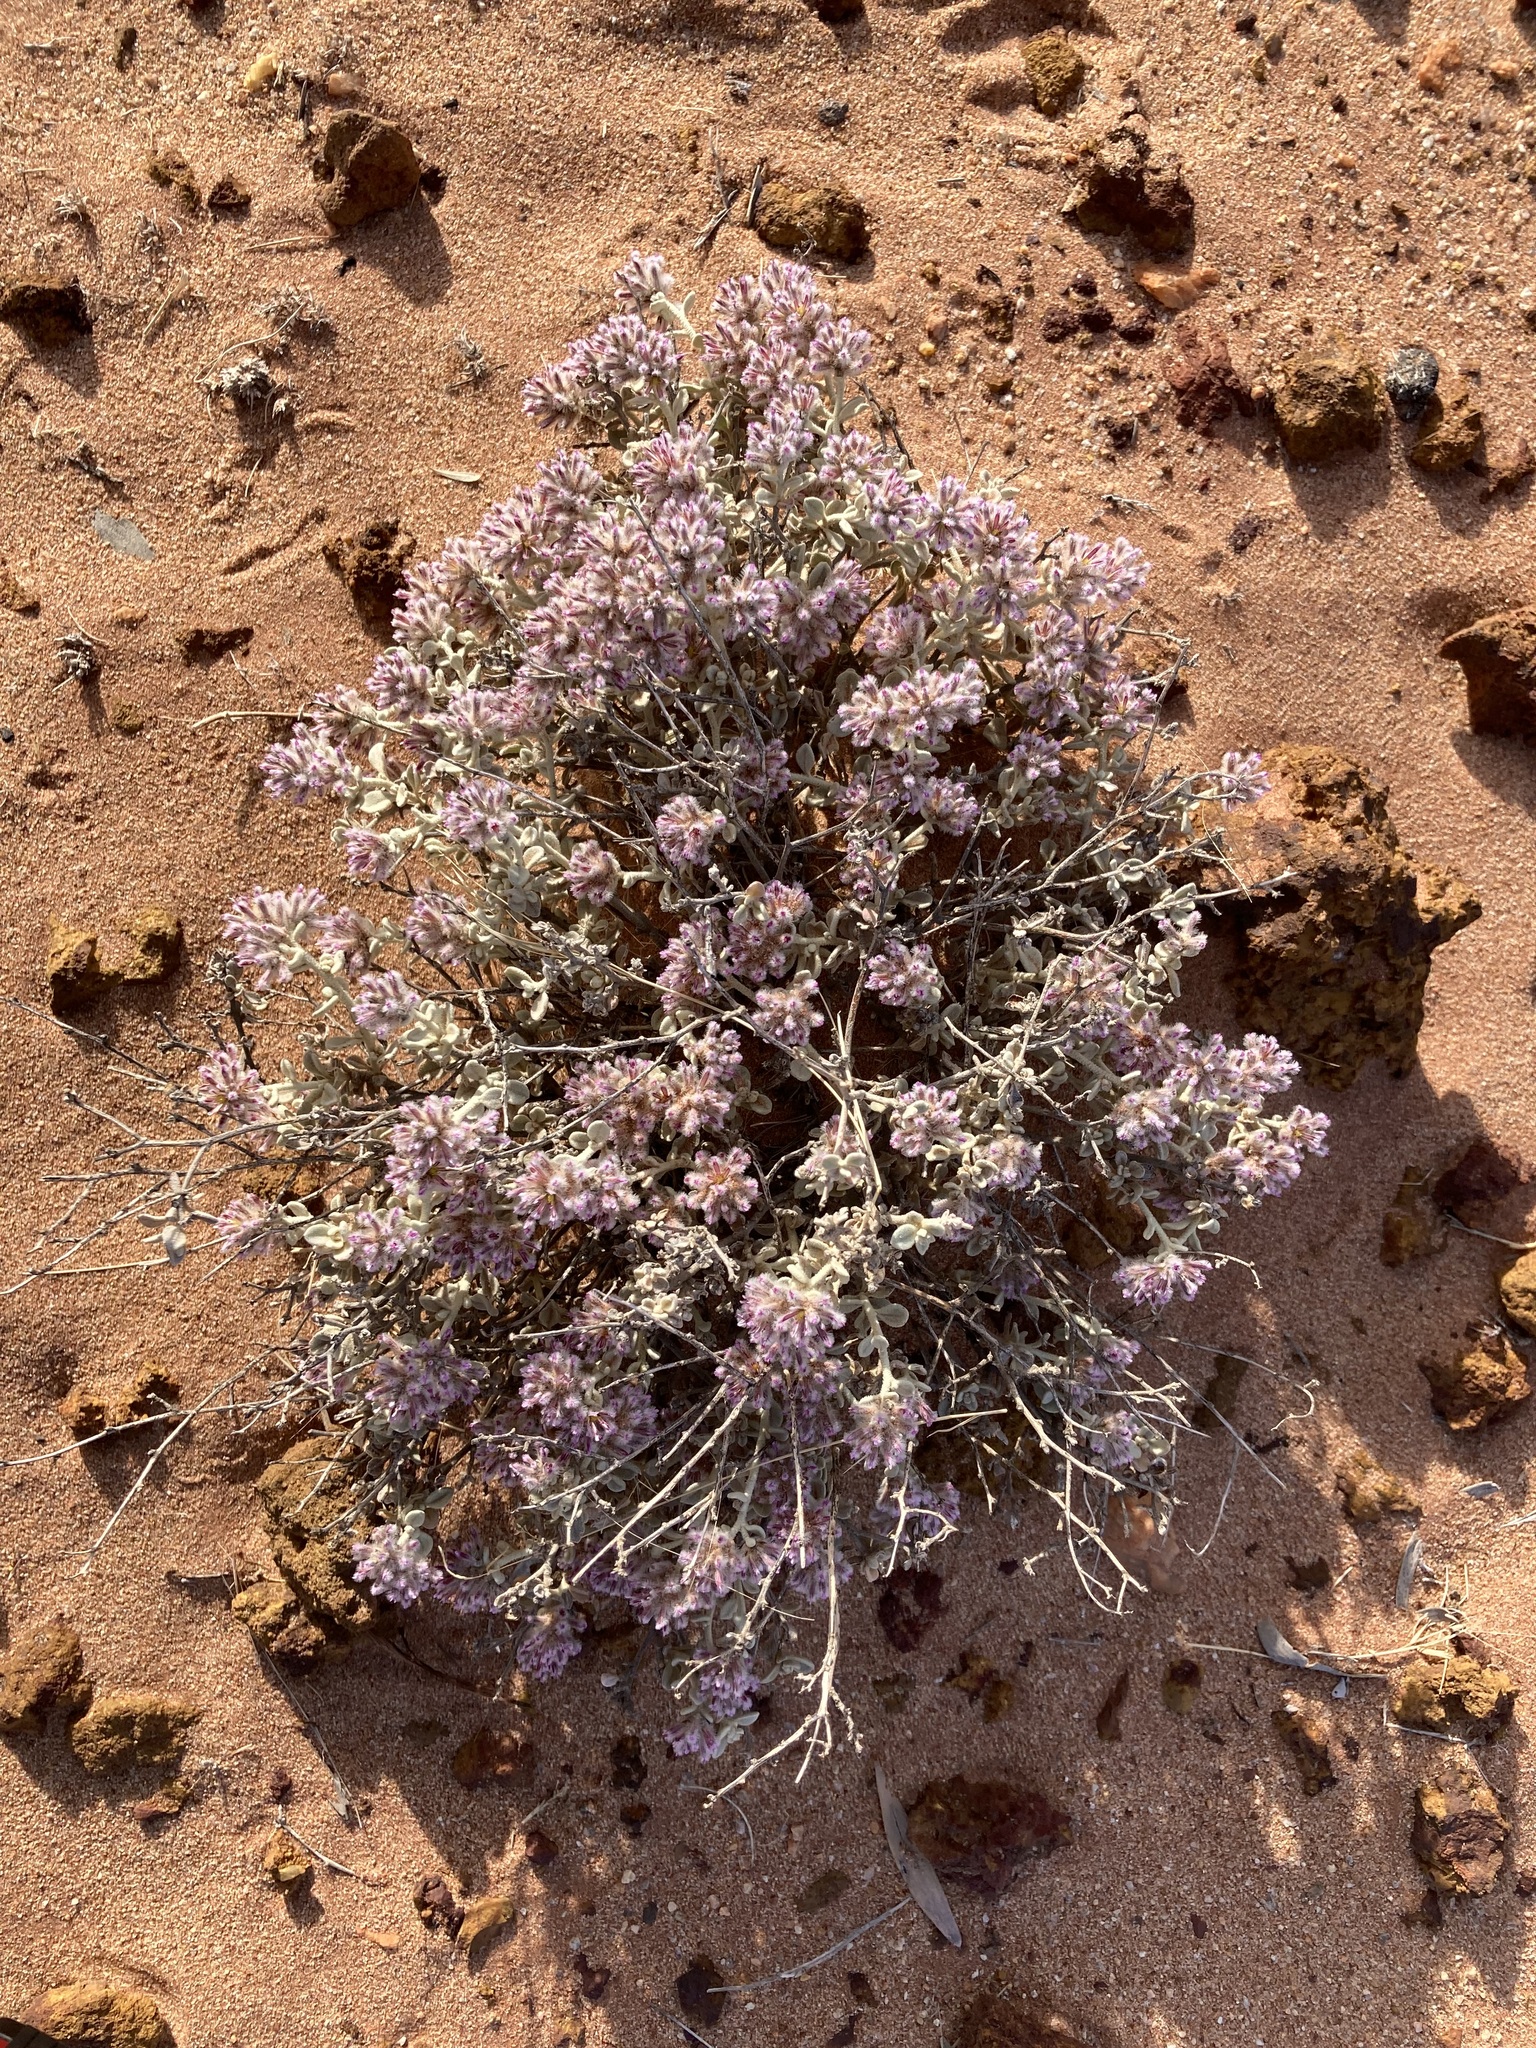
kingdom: Plantae
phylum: Tracheophyta
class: Magnoliopsida
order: Caryophyllales
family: Amaranthaceae
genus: Ptilotus
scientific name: Ptilotus obovatus
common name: Cottonbush
